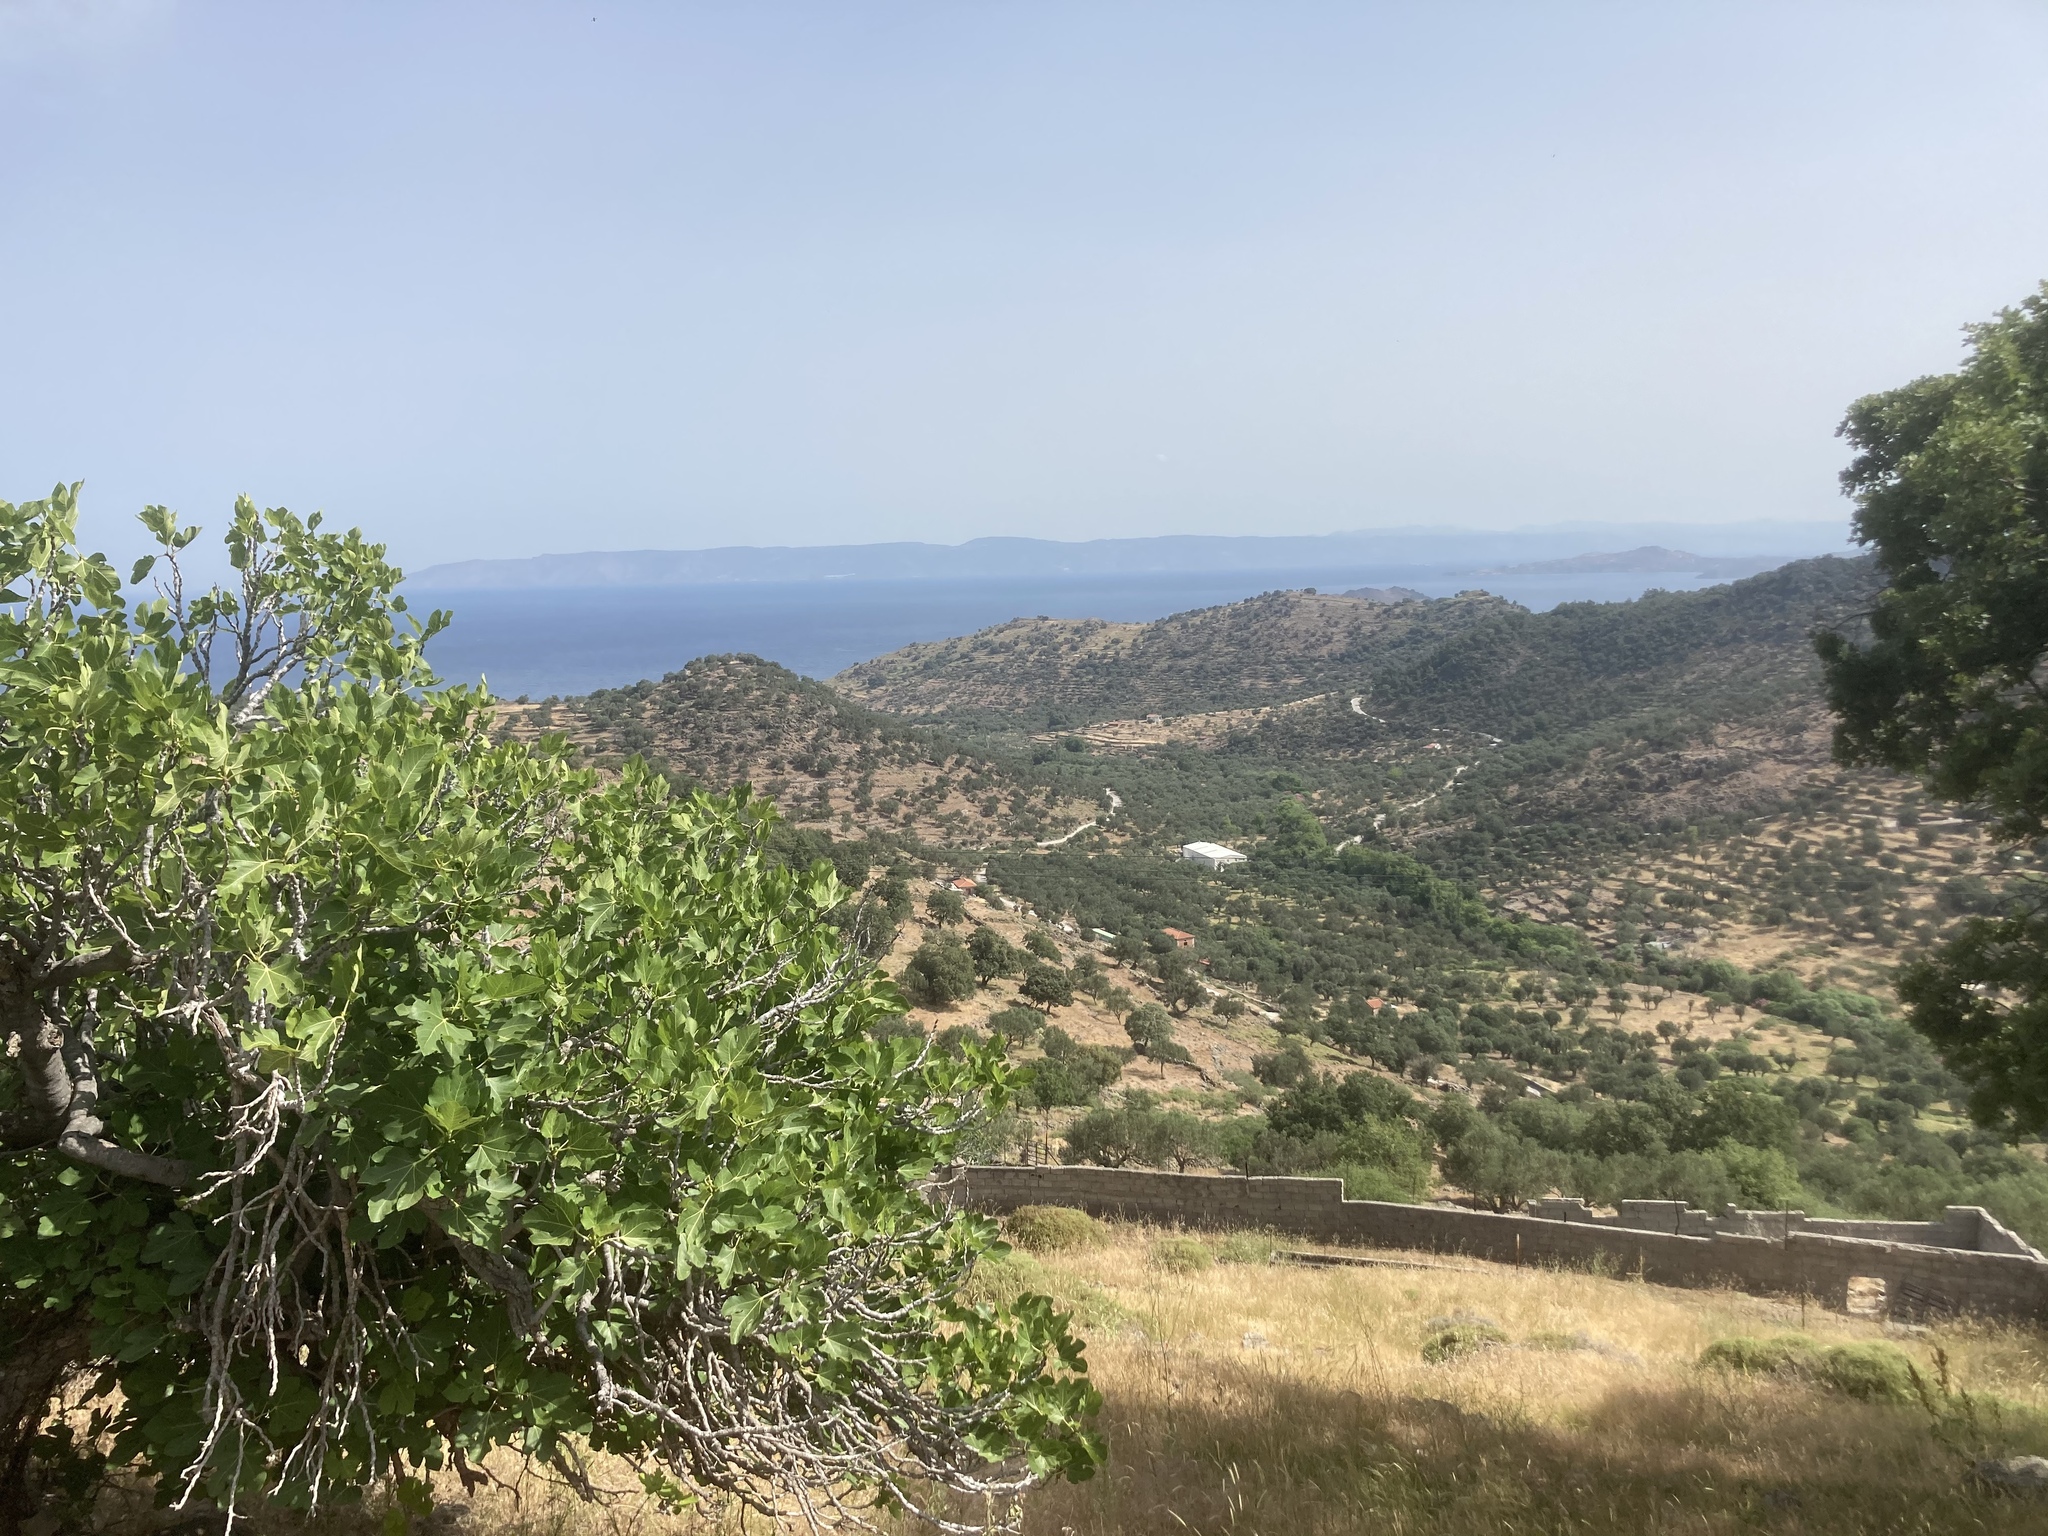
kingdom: Plantae
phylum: Tracheophyta
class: Magnoliopsida
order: Rosales
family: Moraceae
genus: Ficus
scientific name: Ficus carica
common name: Fig
